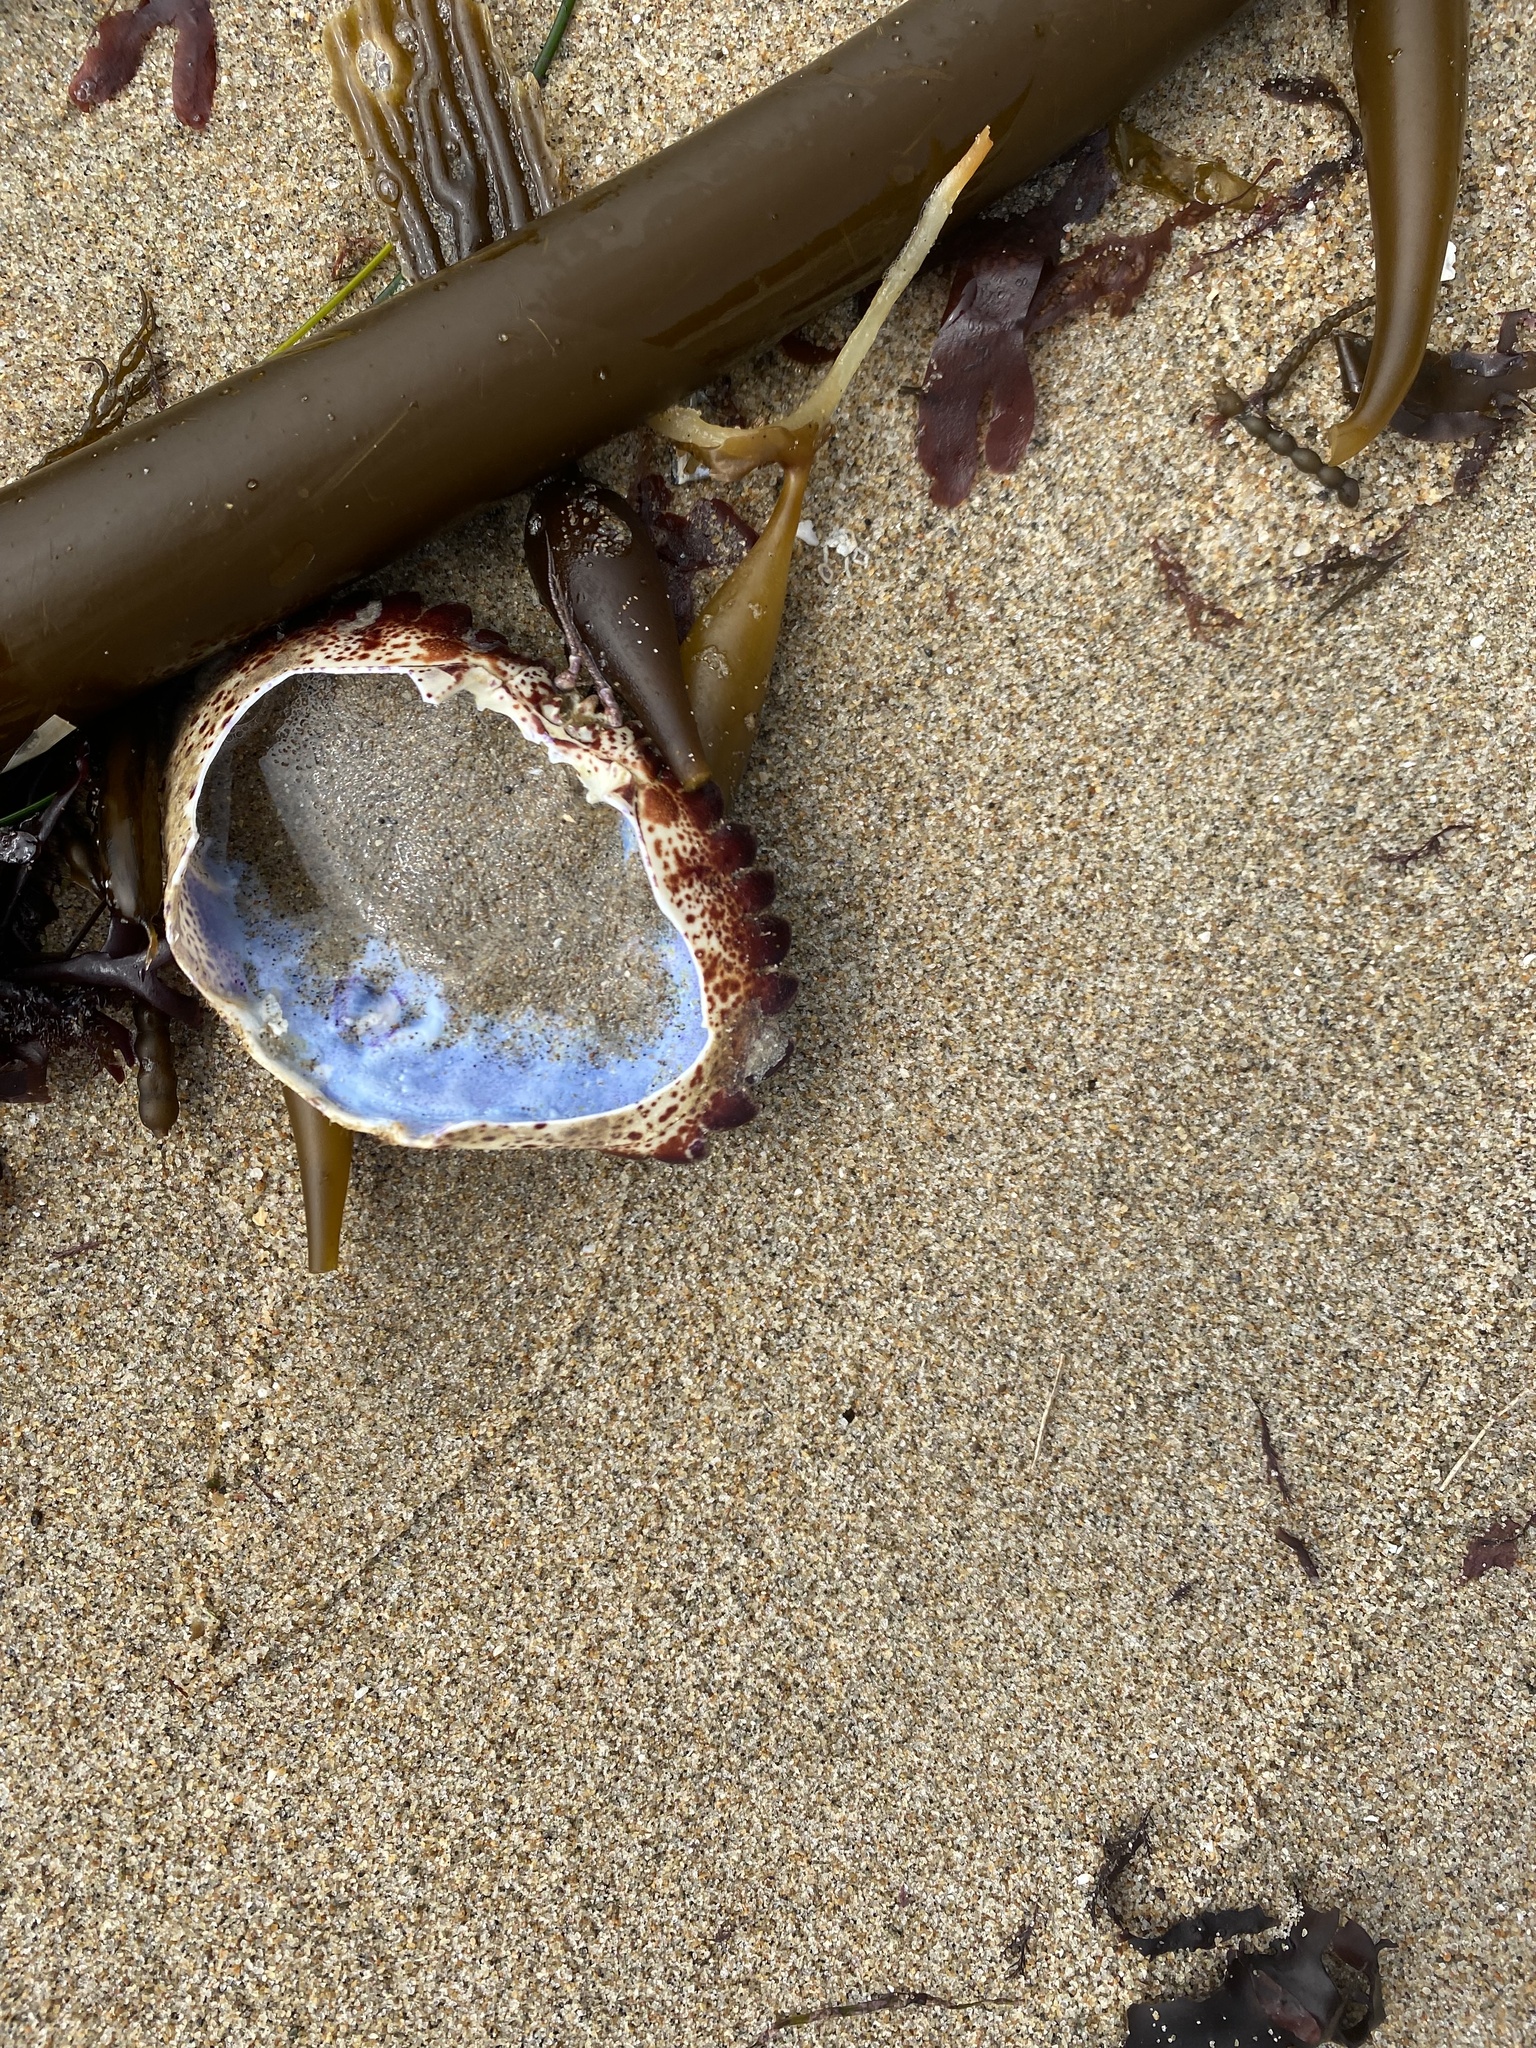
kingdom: Animalia
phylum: Arthropoda
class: Malacostraca
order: Decapoda
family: Cancridae
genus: Romaleon
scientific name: Romaleon antennarium
